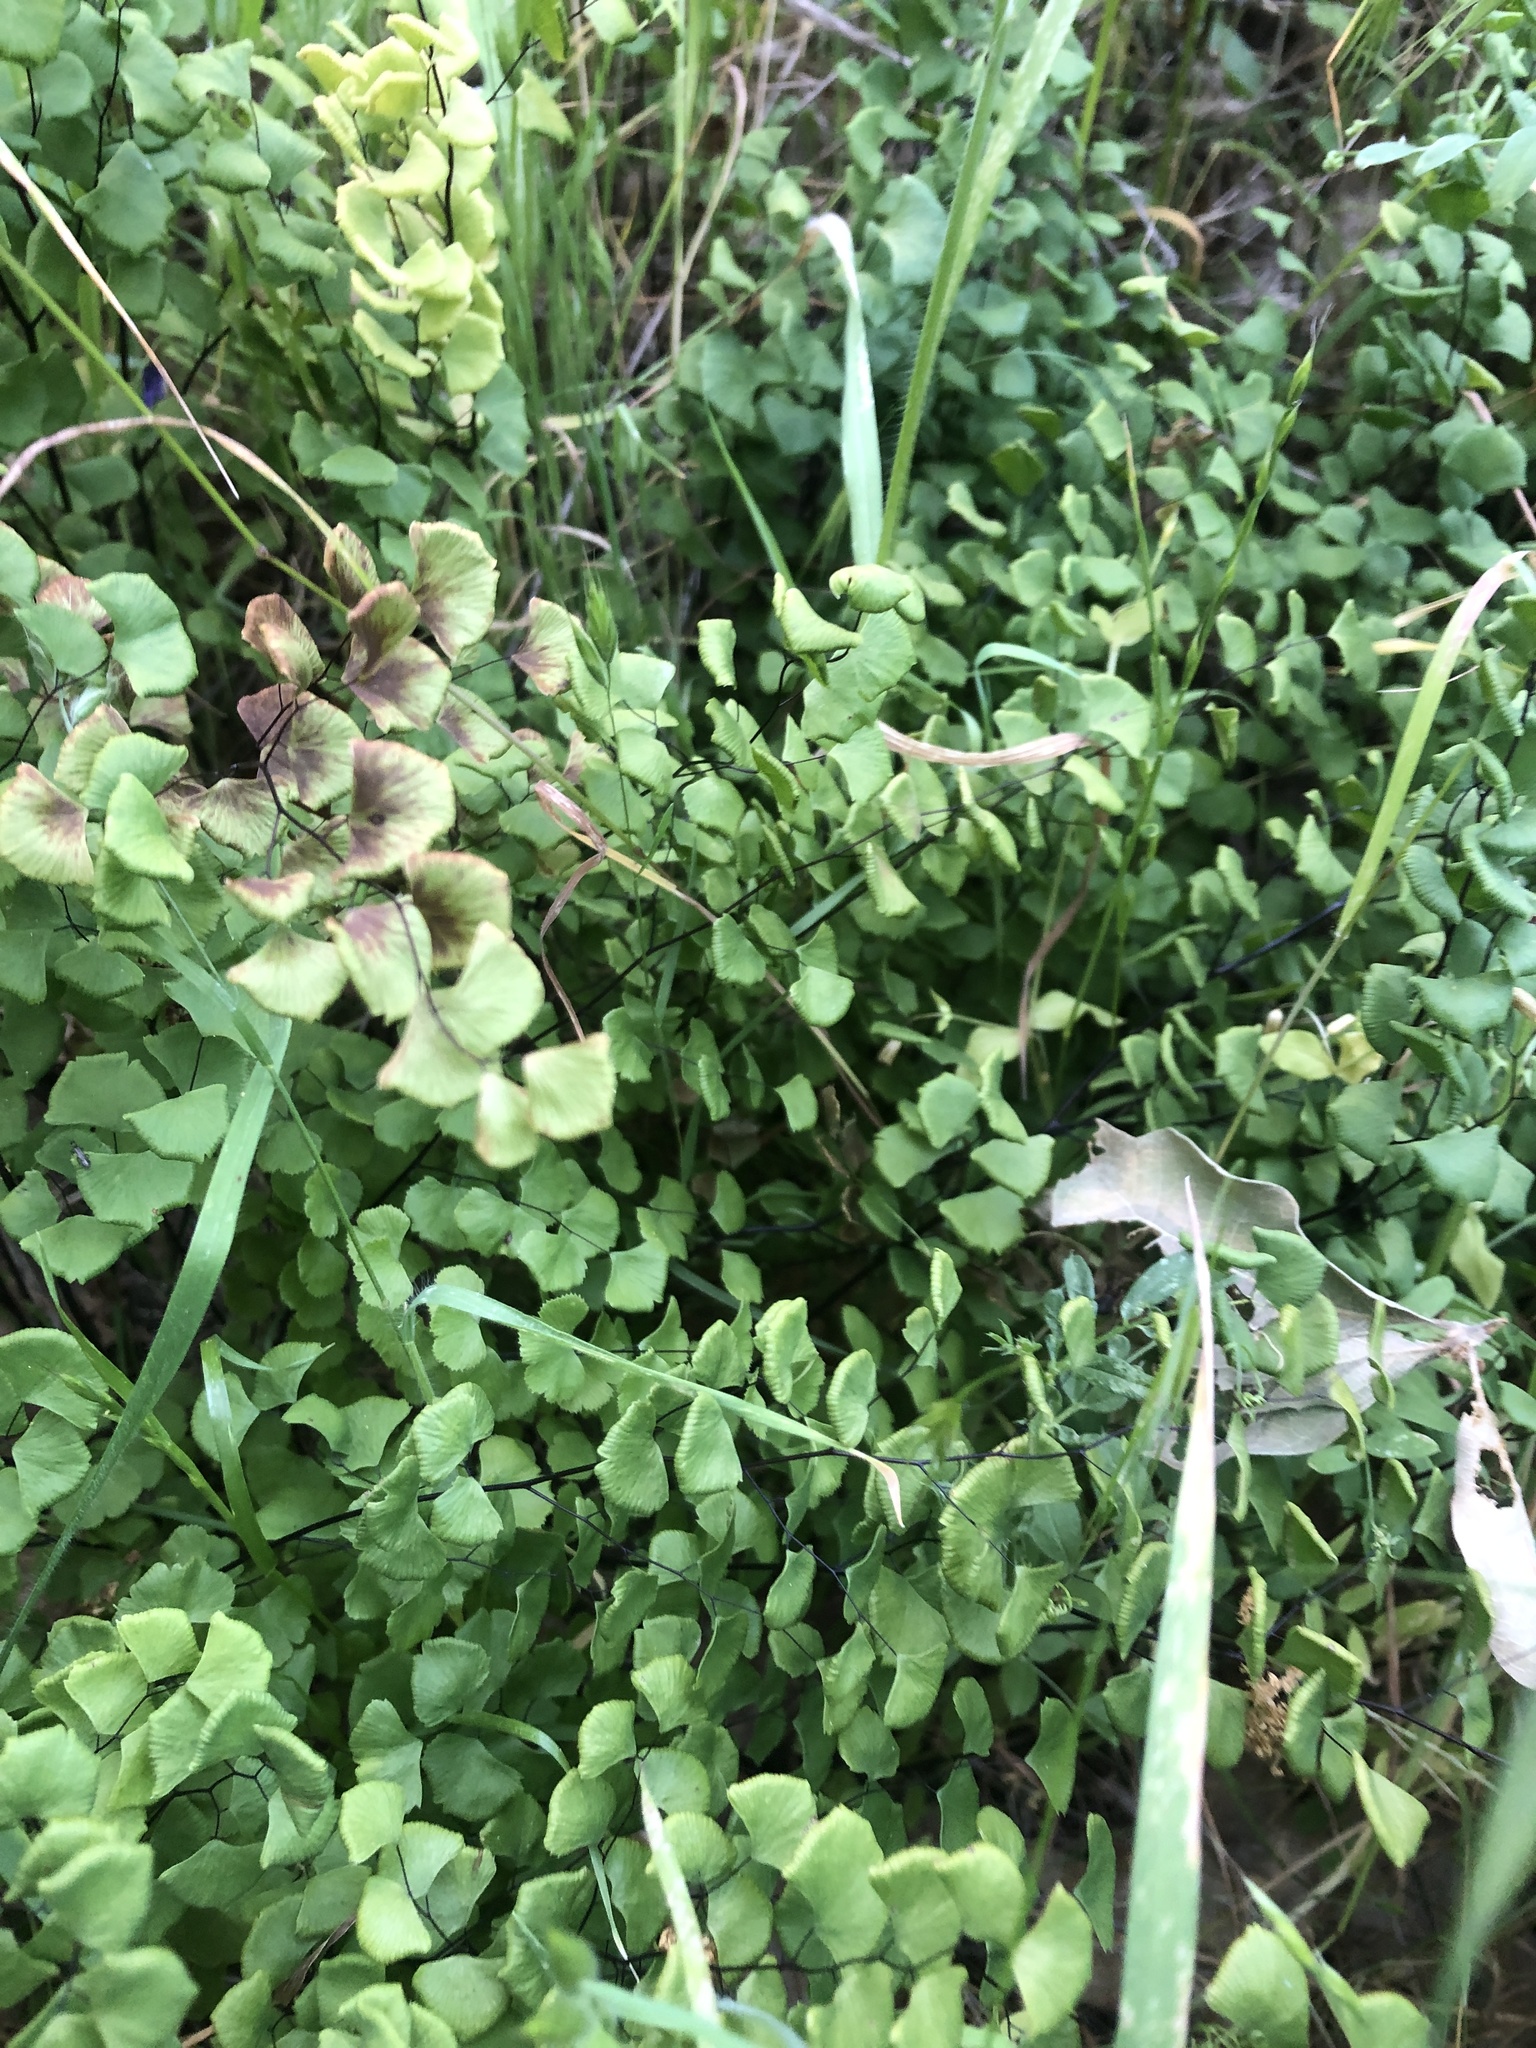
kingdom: Plantae
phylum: Tracheophyta
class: Polypodiopsida
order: Polypodiales
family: Pteridaceae
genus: Adiantum
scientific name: Adiantum jordanii
